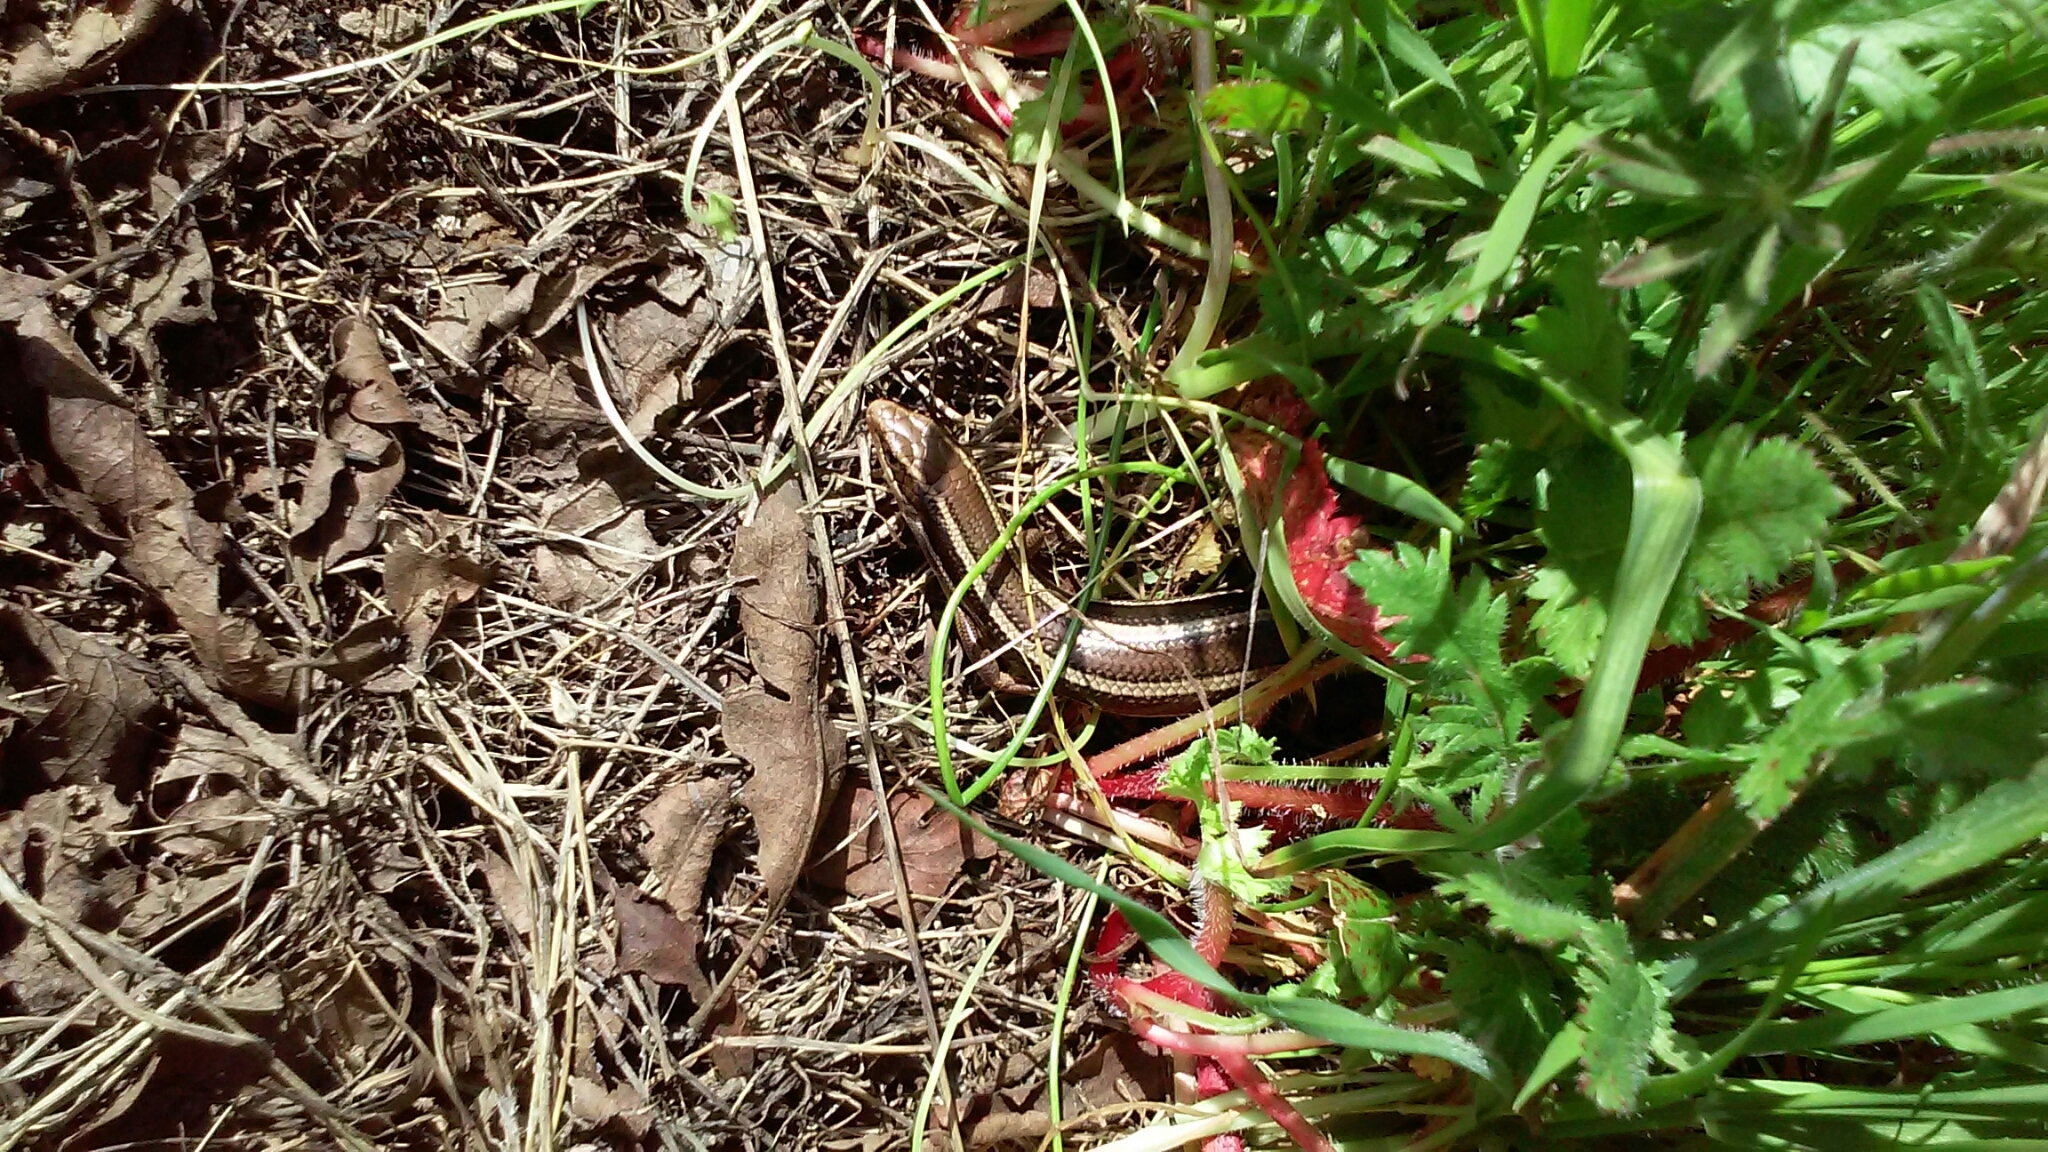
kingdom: Animalia
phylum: Chordata
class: Squamata
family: Scincidae
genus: Plestiodon
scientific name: Plestiodon skiltonianus
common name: Coronado island skink [interparietalis]
